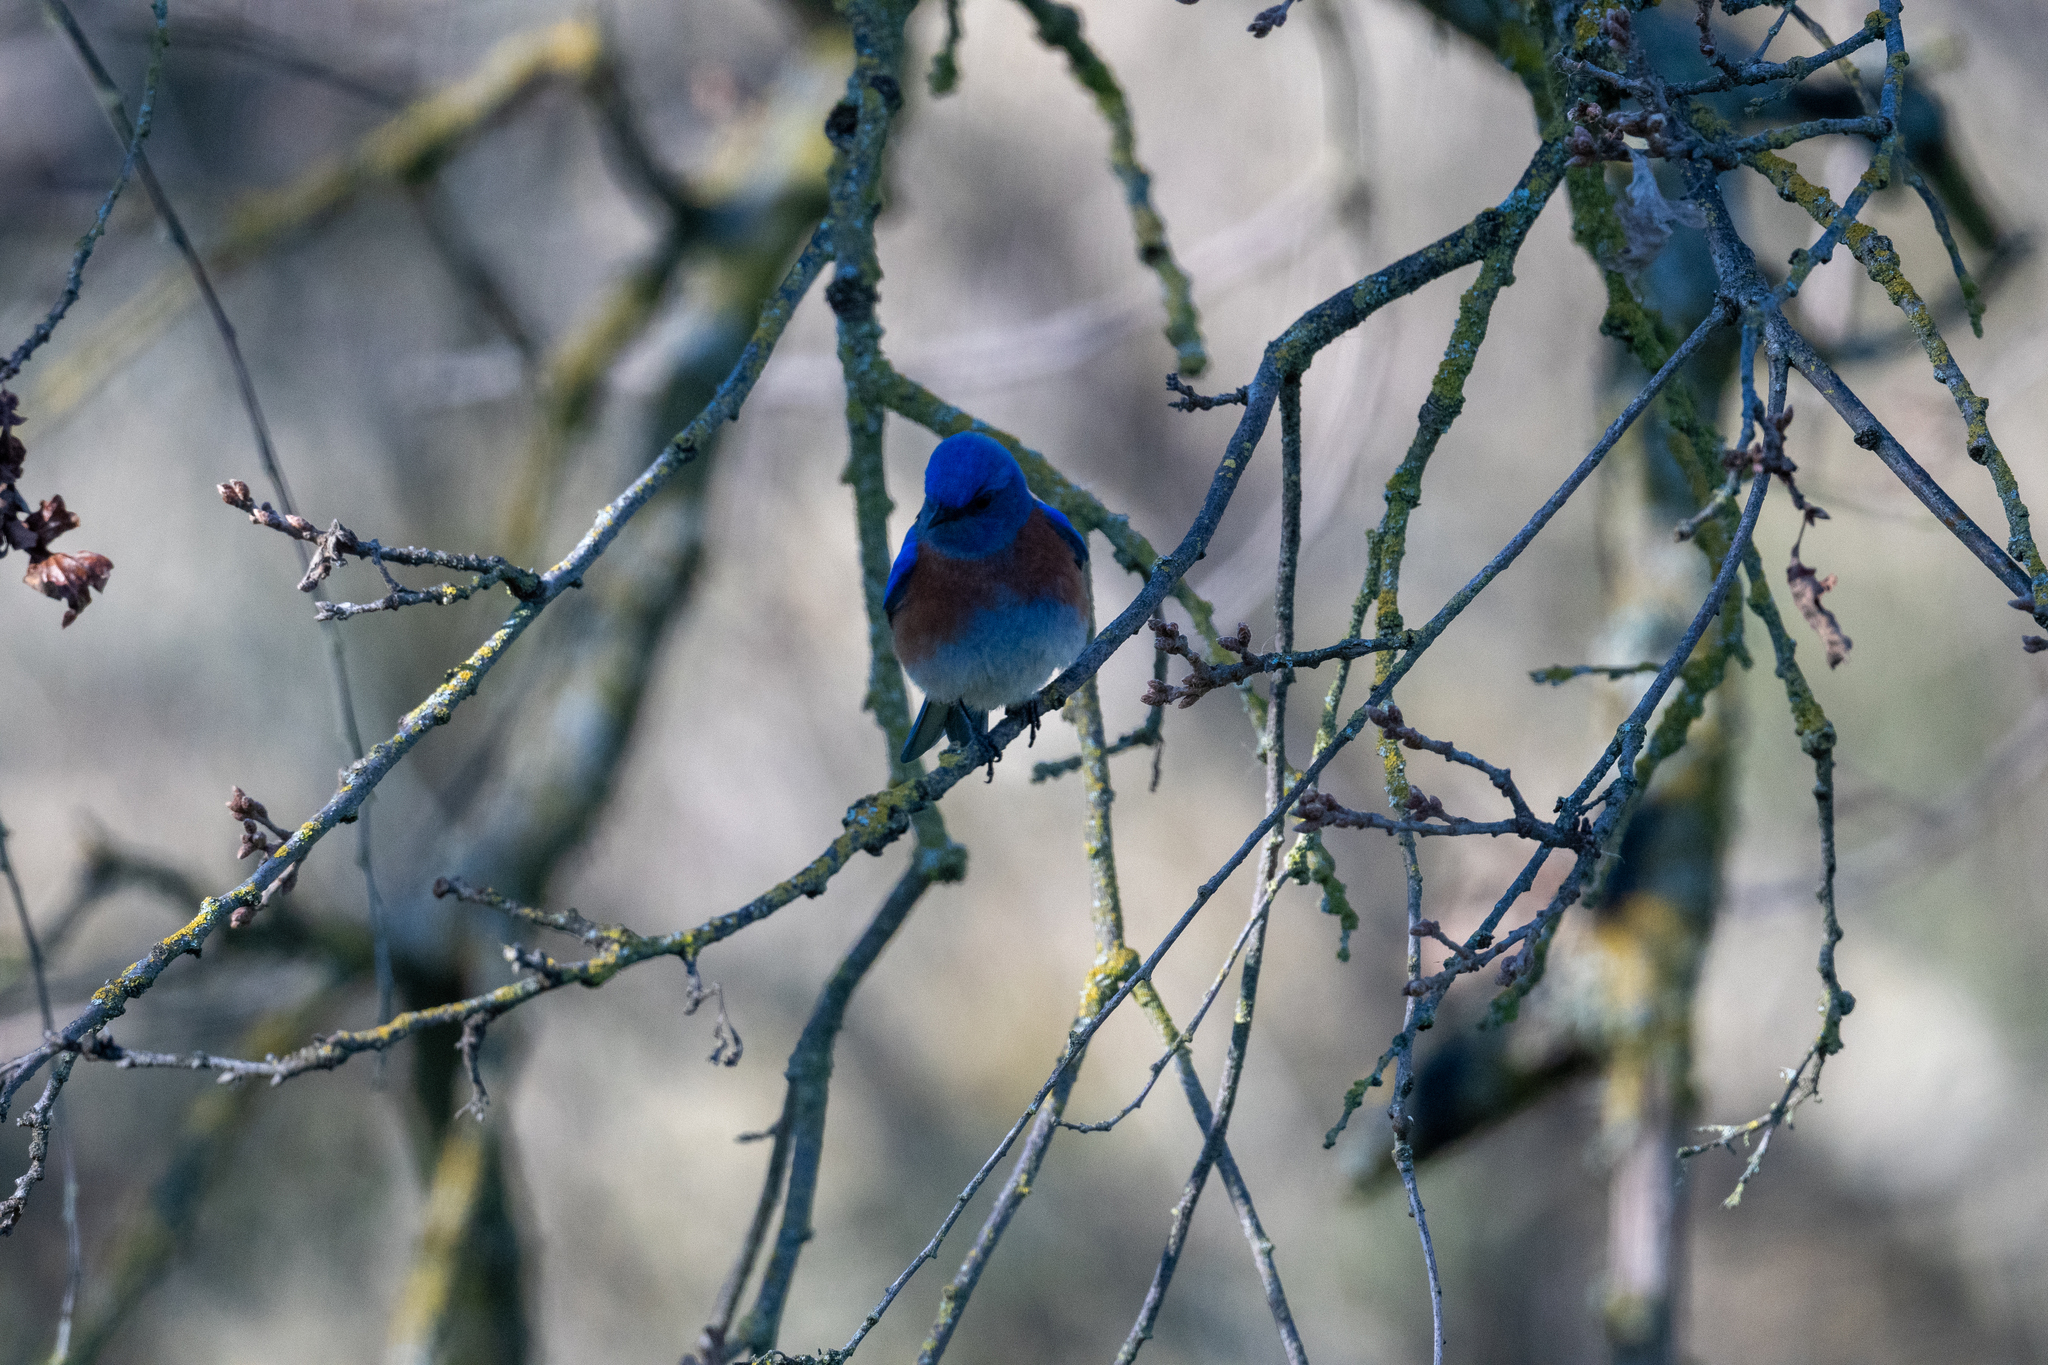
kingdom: Animalia
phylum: Chordata
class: Aves
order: Passeriformes
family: Turdidae
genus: Sialia
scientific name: Sialia mexicana
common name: Western bluebird
